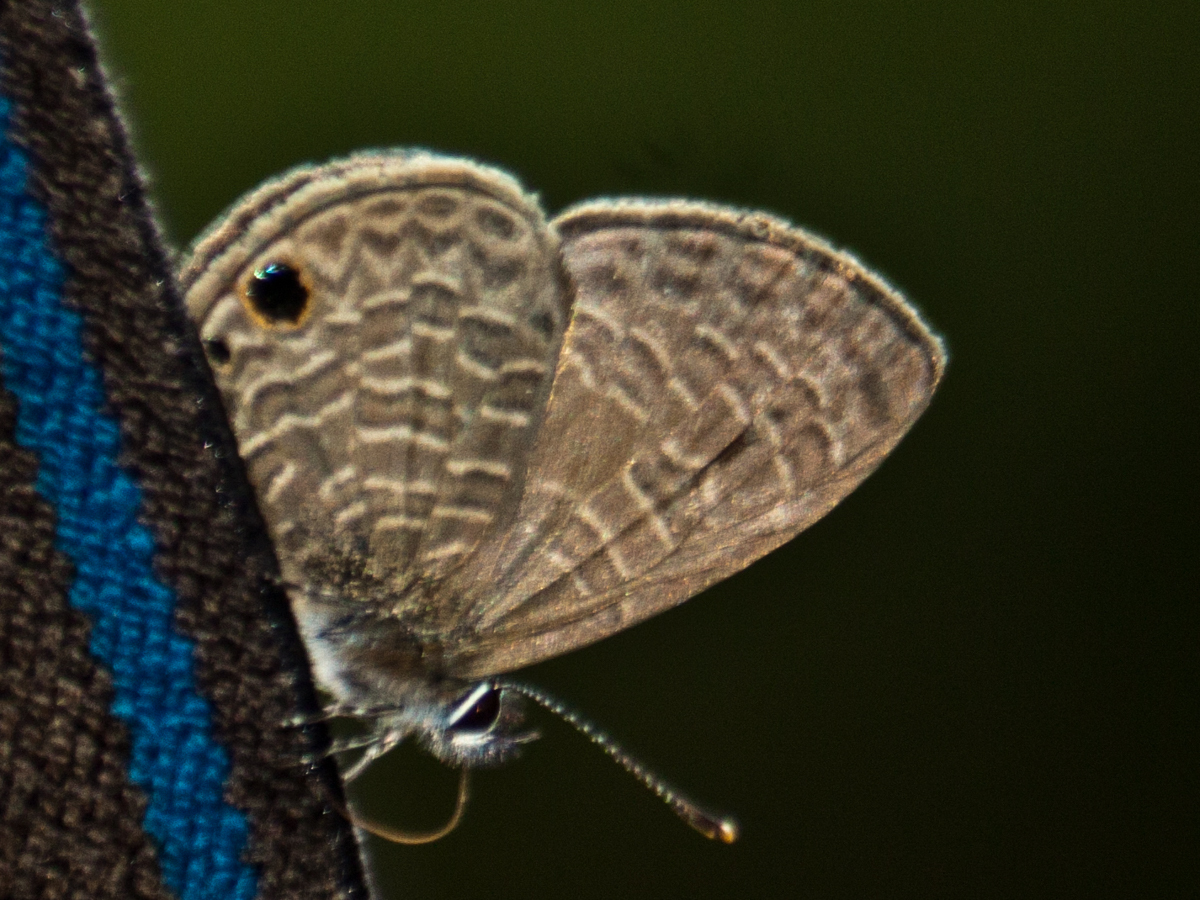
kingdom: Animalia
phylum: Arthropoda
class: Insecta
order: Lepidoptera
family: Lycaenidae
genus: Prosotas
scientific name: Prosotas dubiosa
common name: Tailless lineblue
